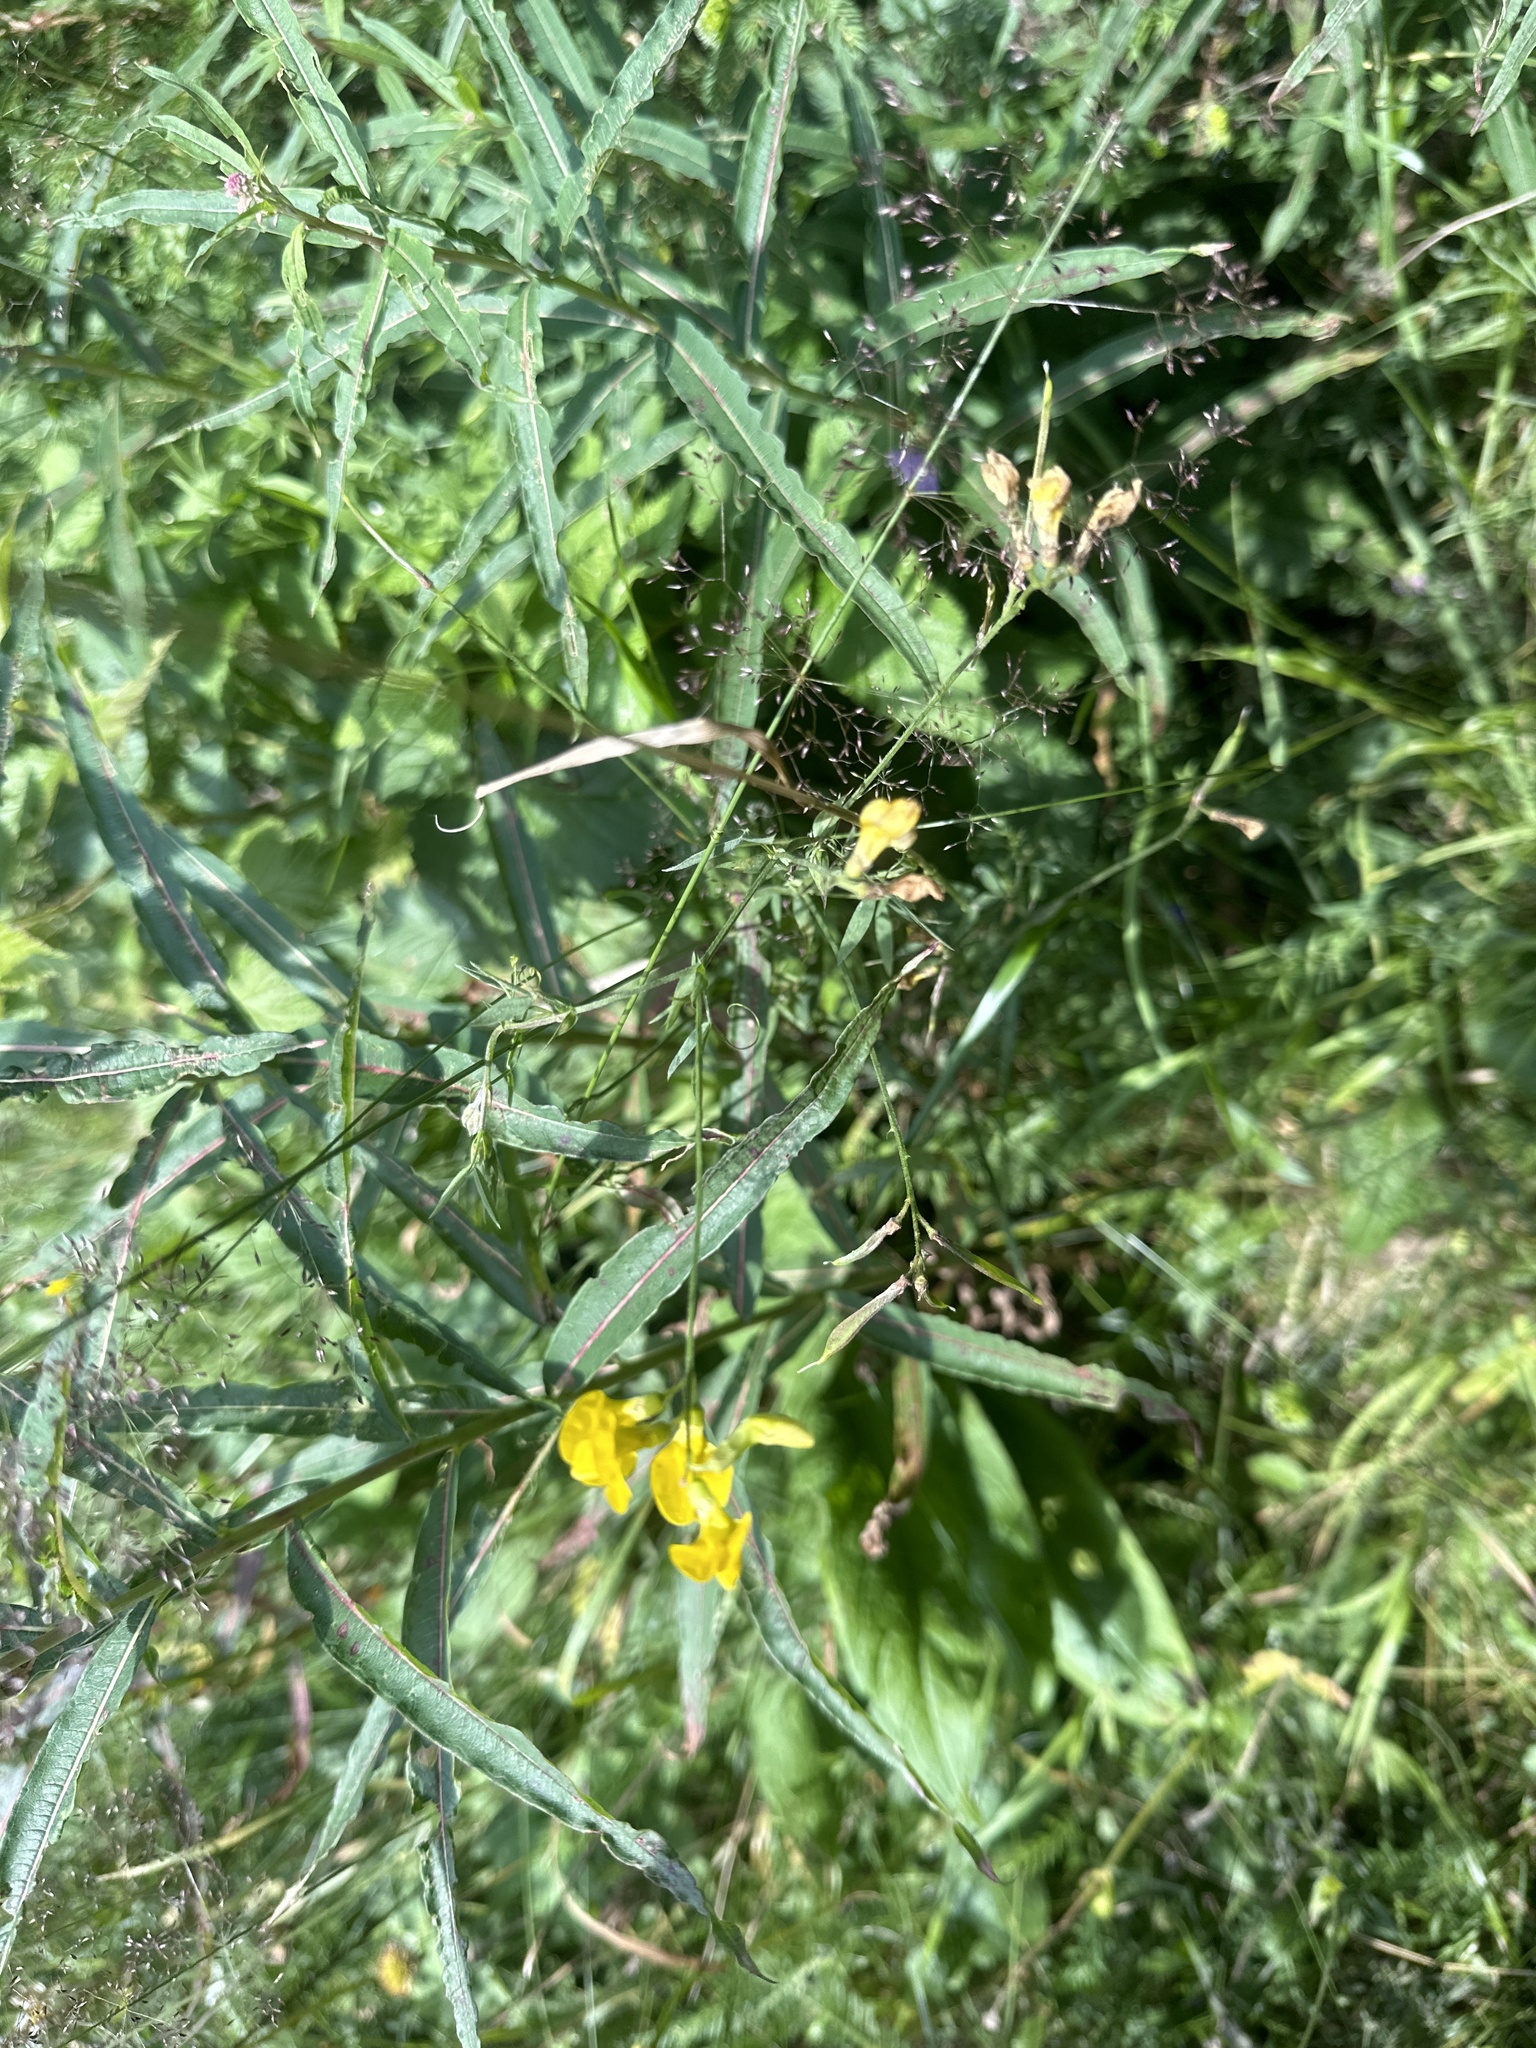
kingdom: Plantae
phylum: Tracheophyta
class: Magnoliopsida
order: Fabales
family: Fabaceae
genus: Lathyrus
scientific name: Lathyrus pratensis
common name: Meadow vetchling
